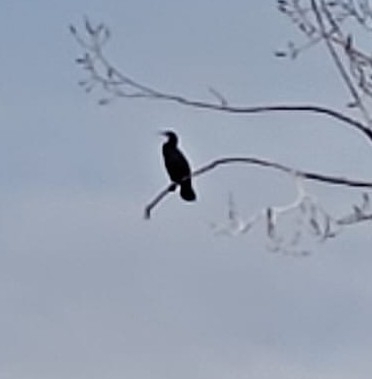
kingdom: Animalia
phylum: Chordata
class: Aves
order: Suliformes
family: Phalacrocoracidae
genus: Phalacrocorax
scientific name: Phalacrocorax carbo
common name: Great cormorant
